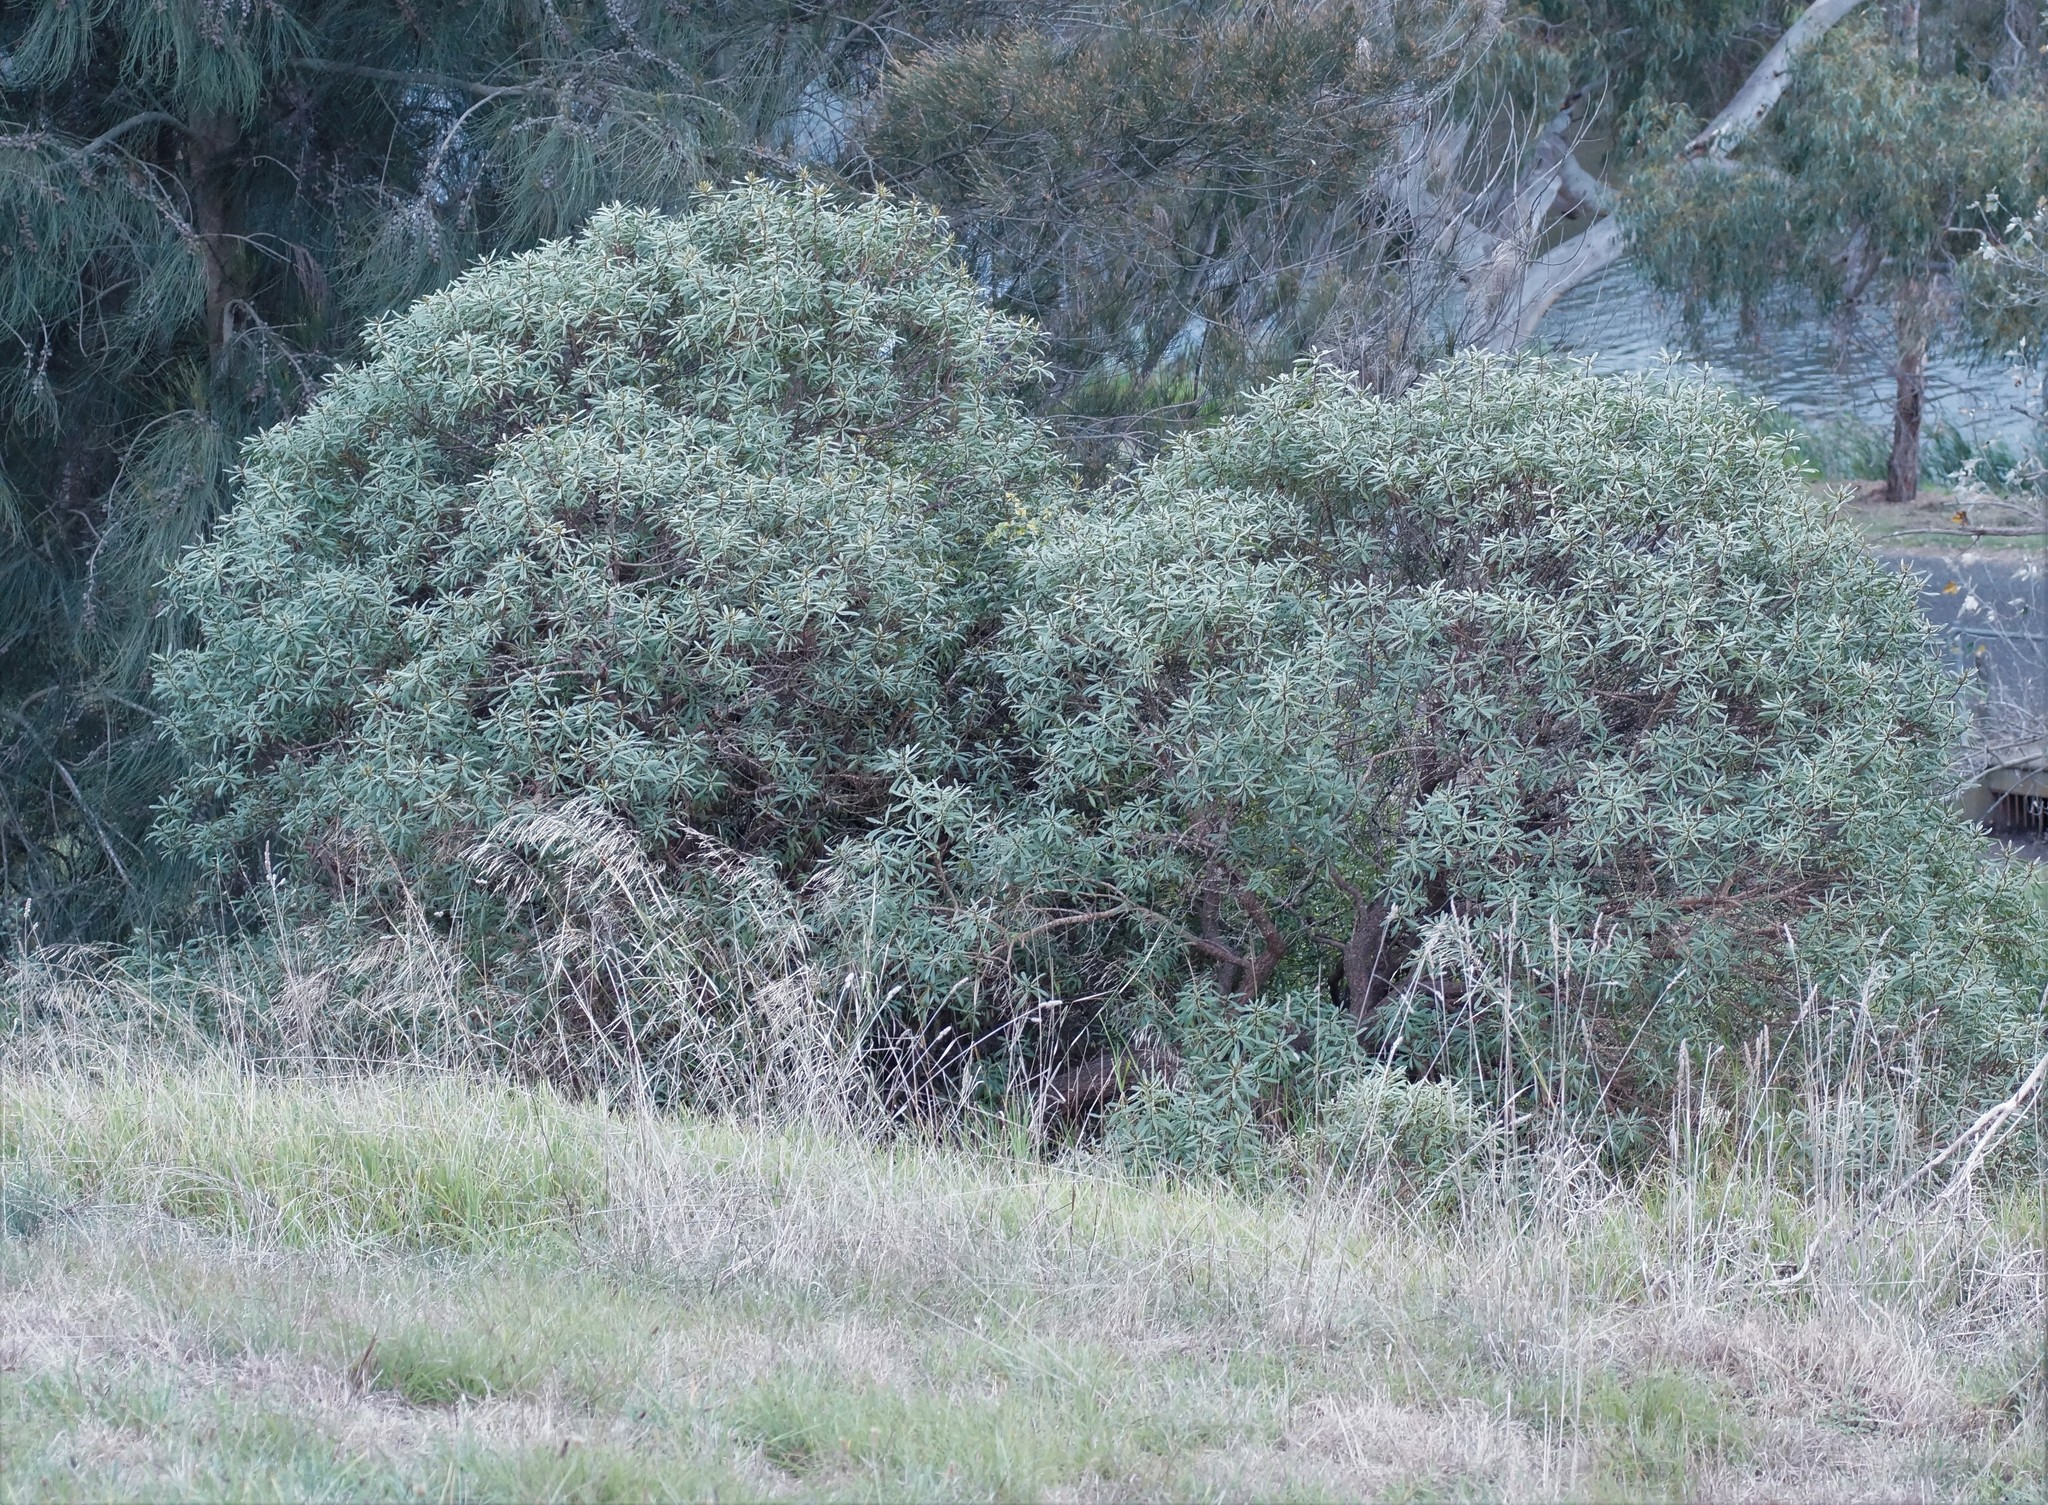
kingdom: Plantae
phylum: Tracheophyta
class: Magnoliopsida
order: Lamiales
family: Scrophulariaceae
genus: Myoporum
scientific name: Myoporum insulare
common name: Common boobialla
